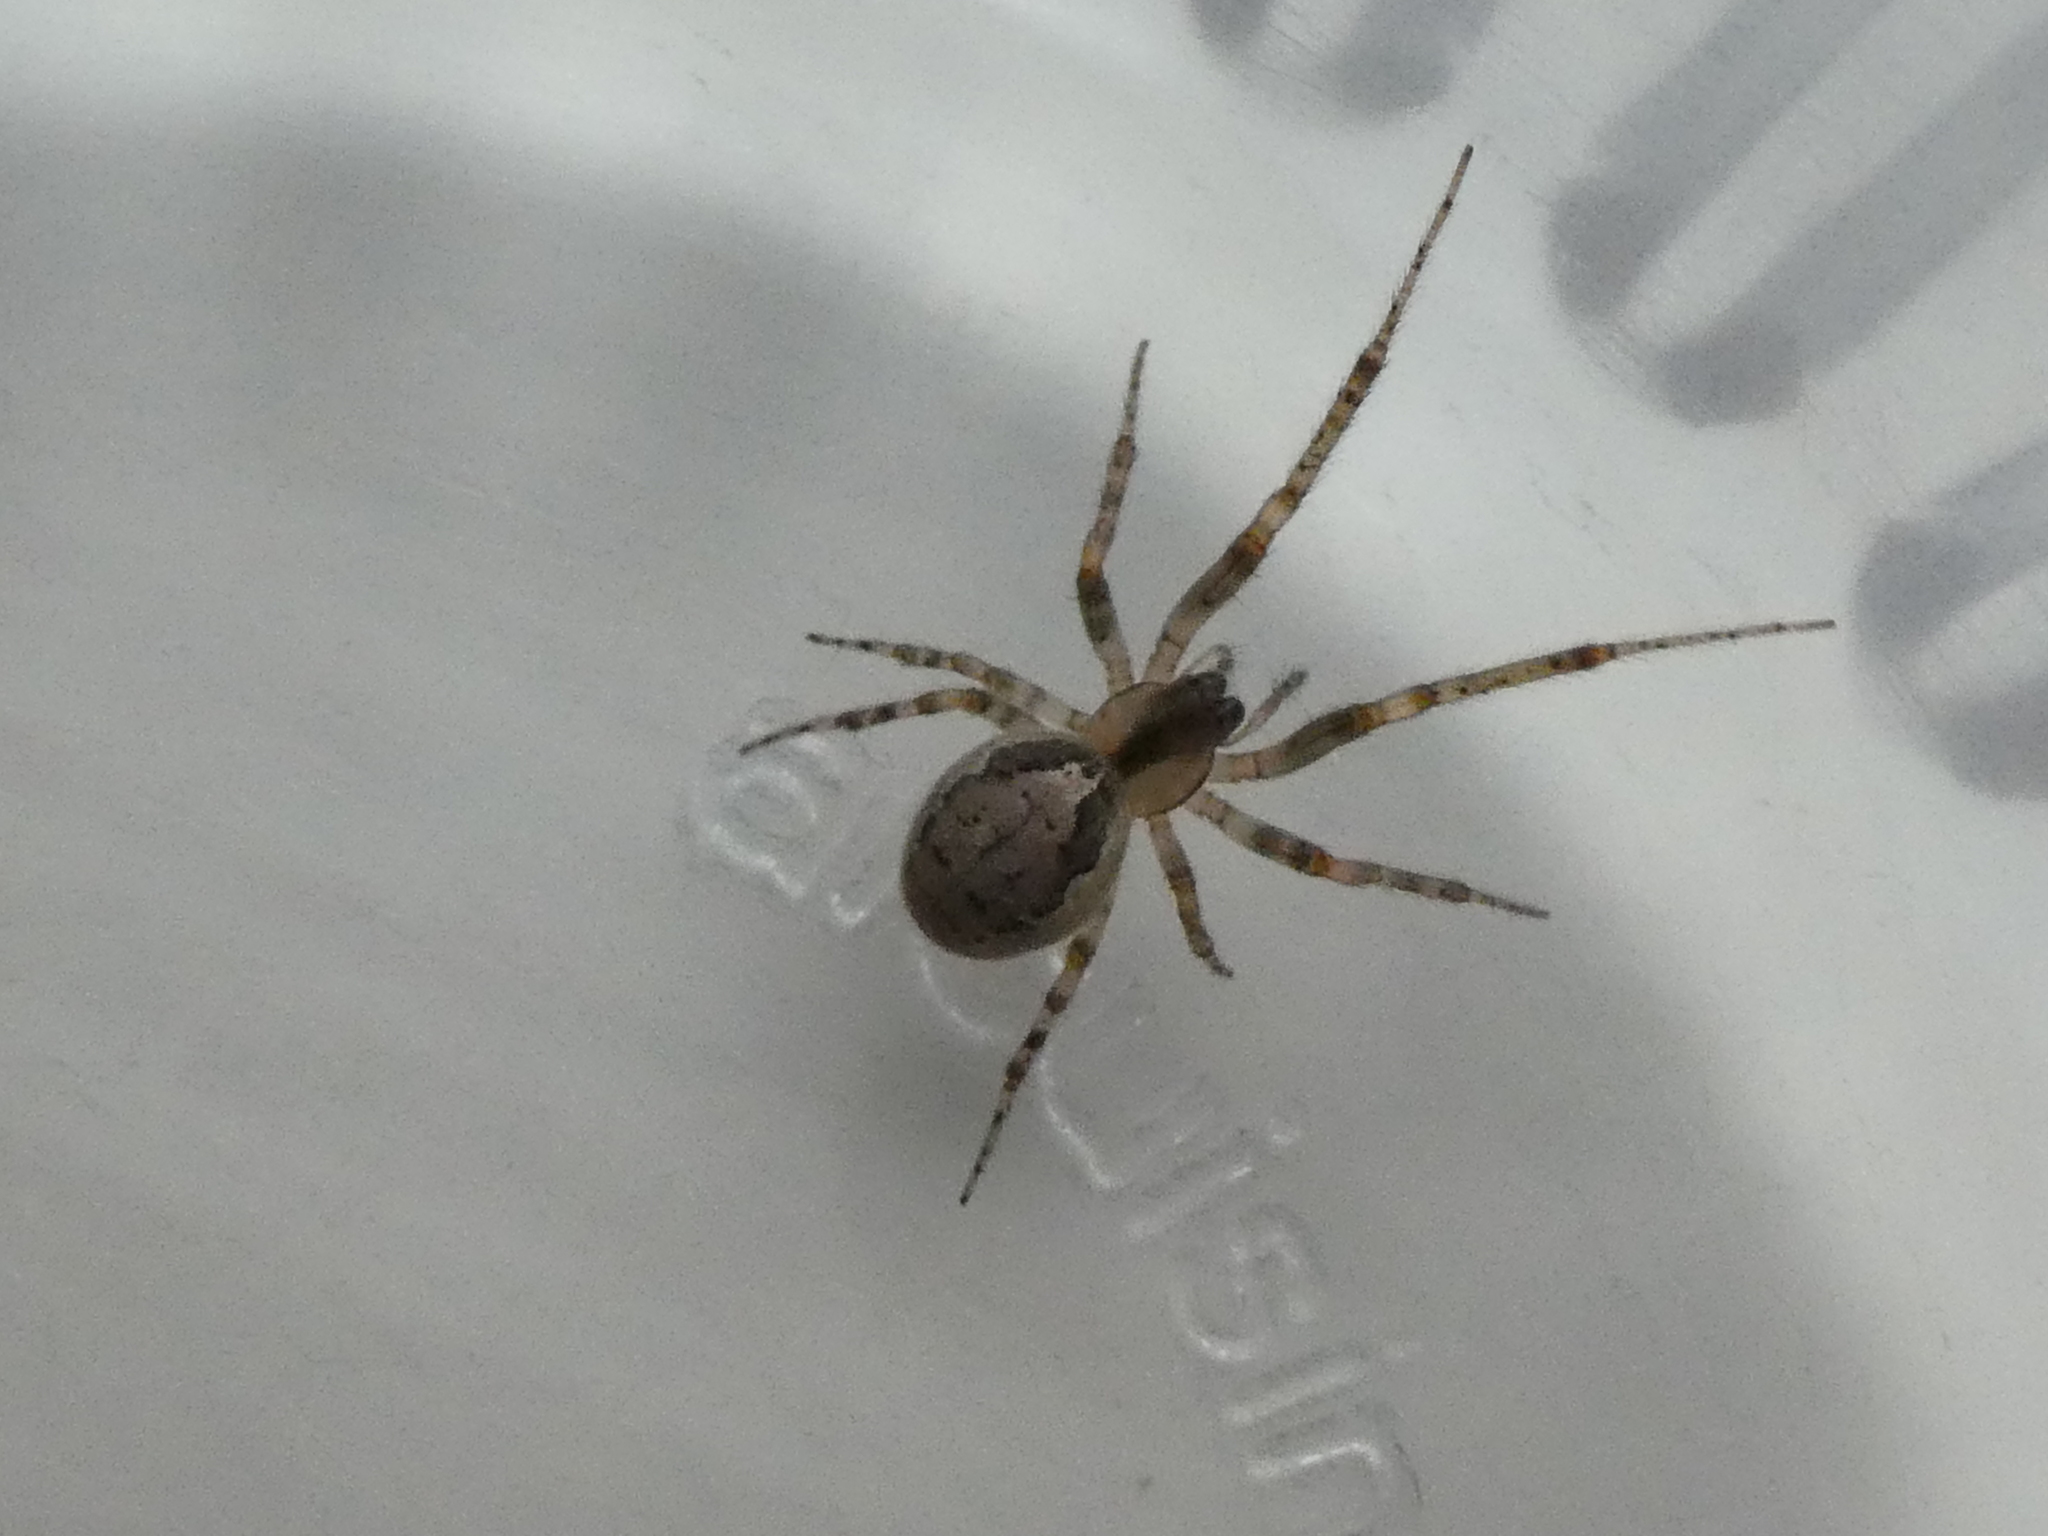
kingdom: Animalia
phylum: Arthropoda
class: Arachnida
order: Araneae
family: Araneidae
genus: Zygiella
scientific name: Zygiella x-notata
